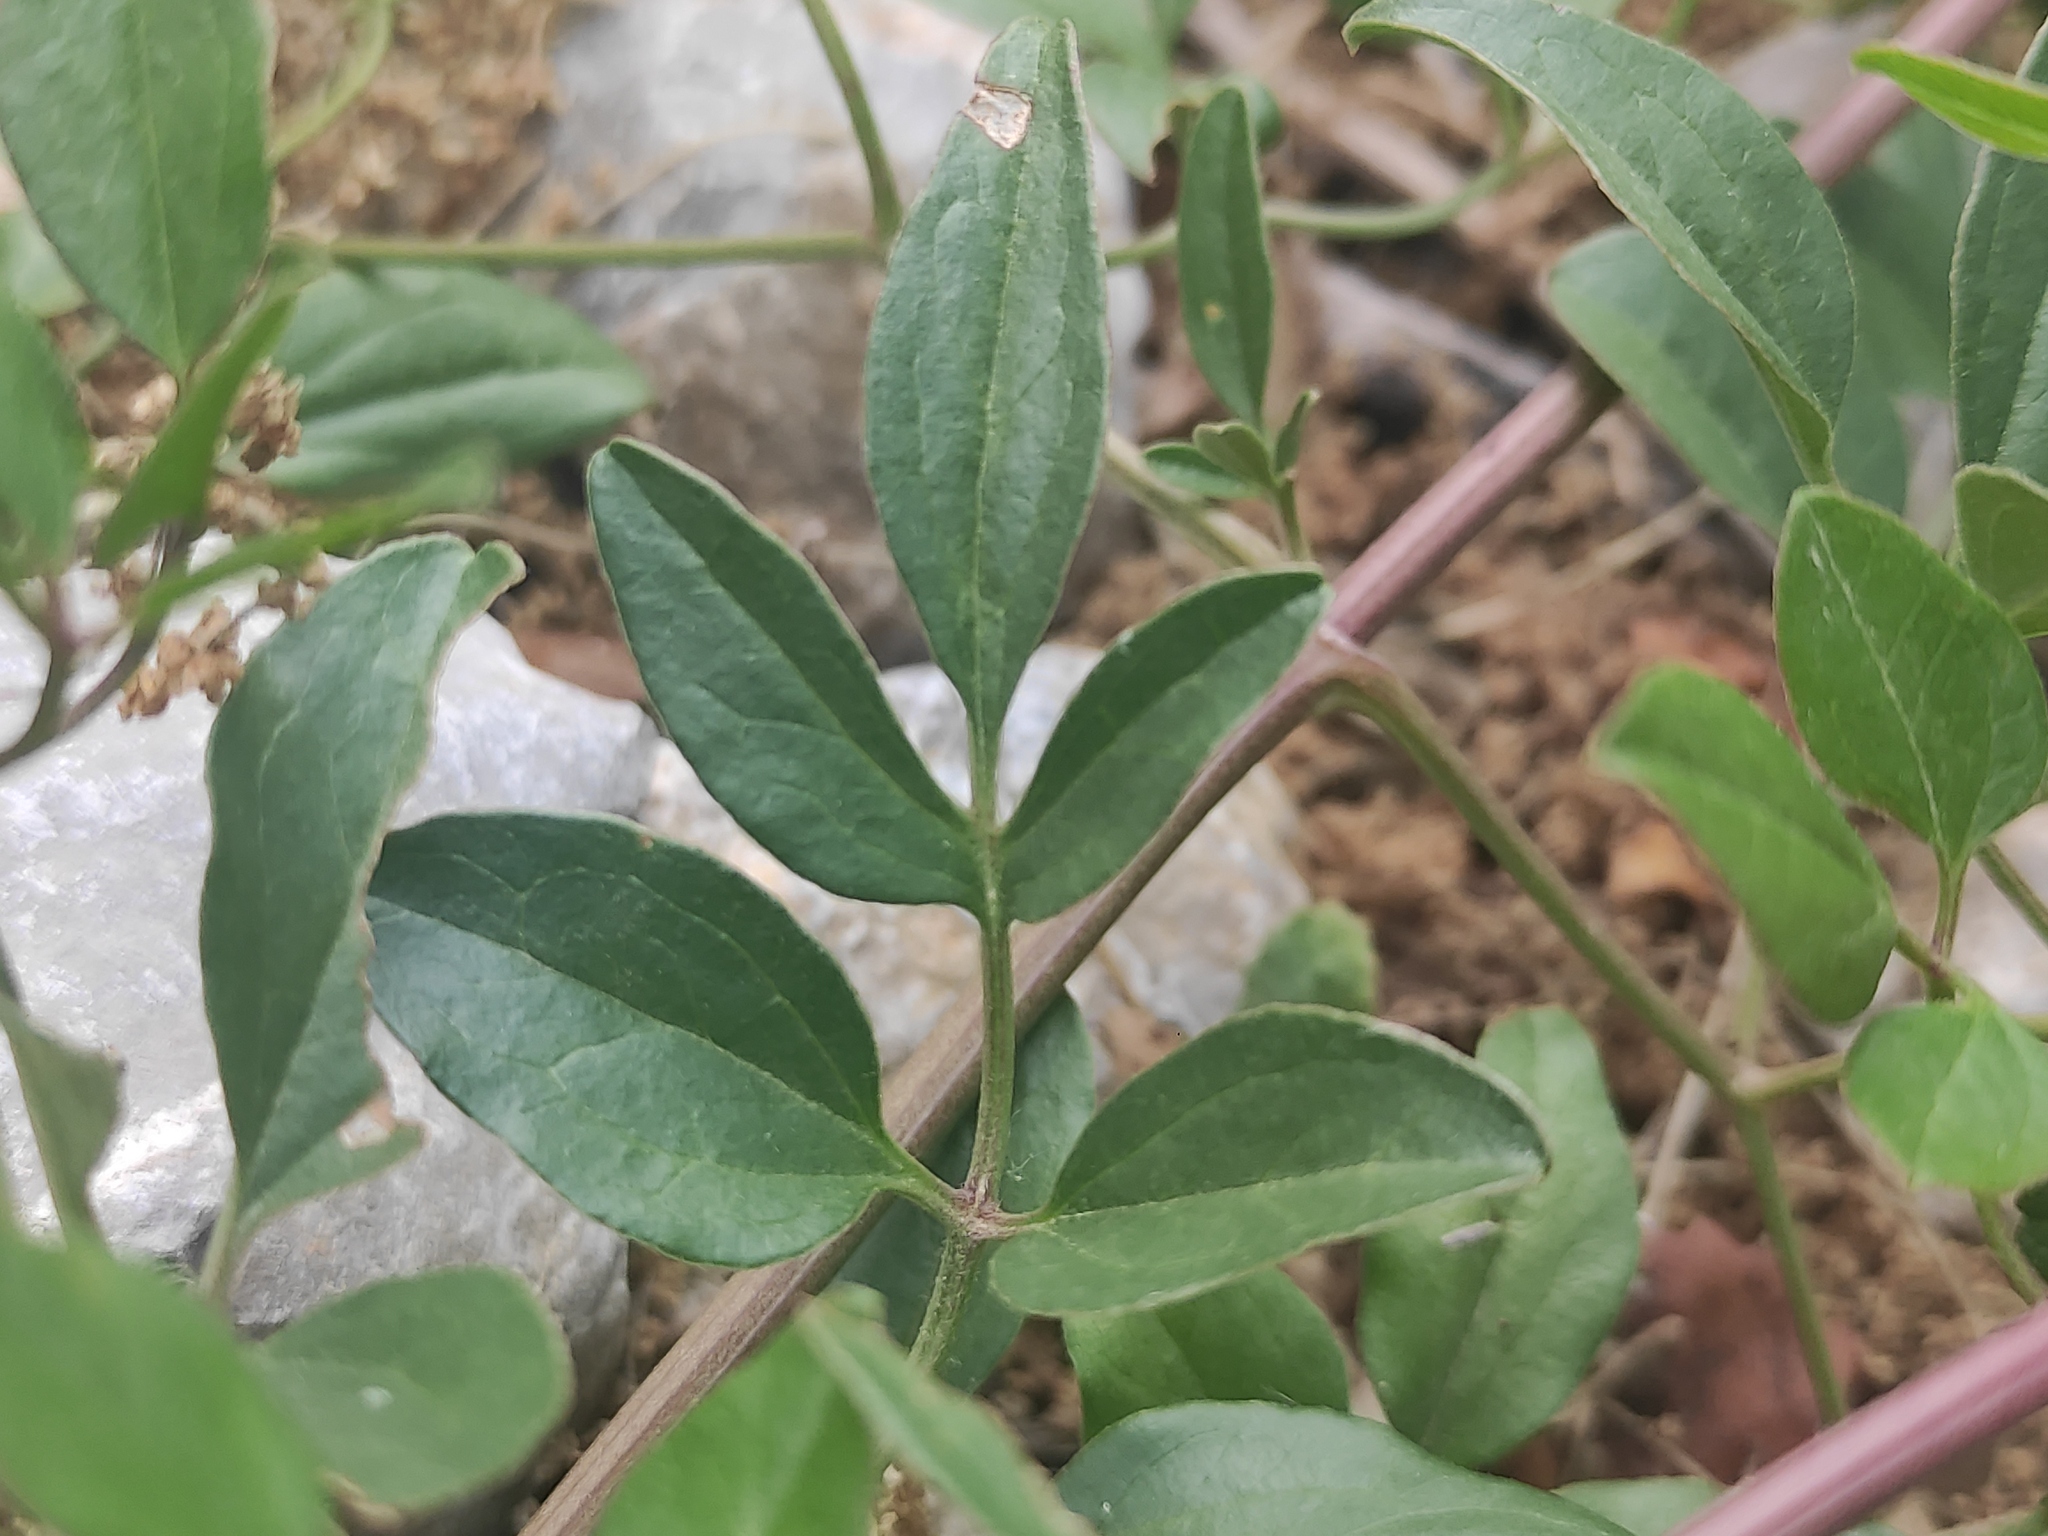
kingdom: Plantae
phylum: Tracheophyta
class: Magnoliopsida
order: Ranunculales
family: Ranunculaceae
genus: Clematis
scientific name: Clematis flammula
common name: Virgin's-bower
